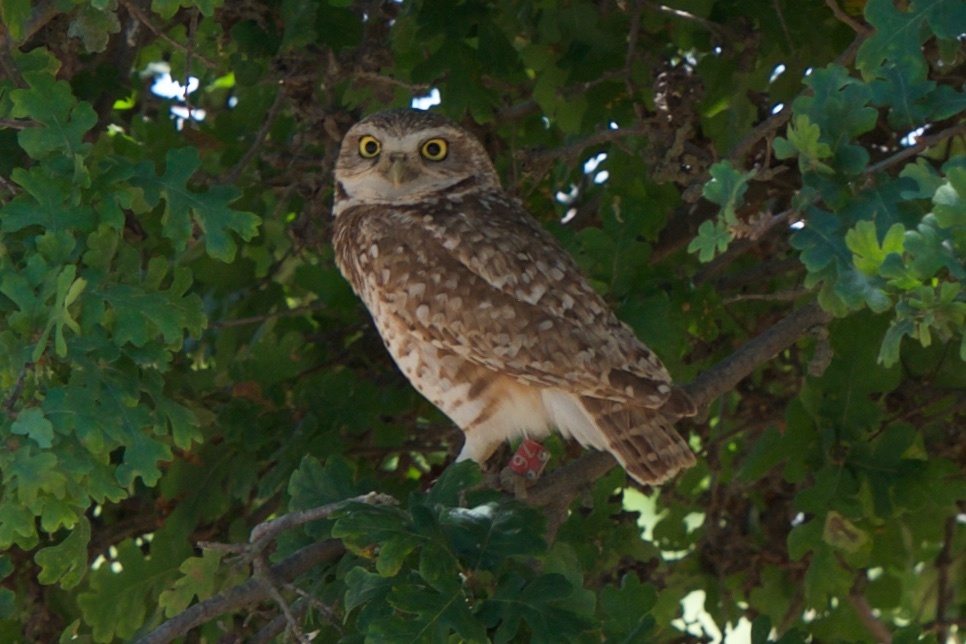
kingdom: Animalia
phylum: Chordata
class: Aves
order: Strigiformes
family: Strigidae
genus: Athene
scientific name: Athene cunicularia
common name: Burrowing owl
